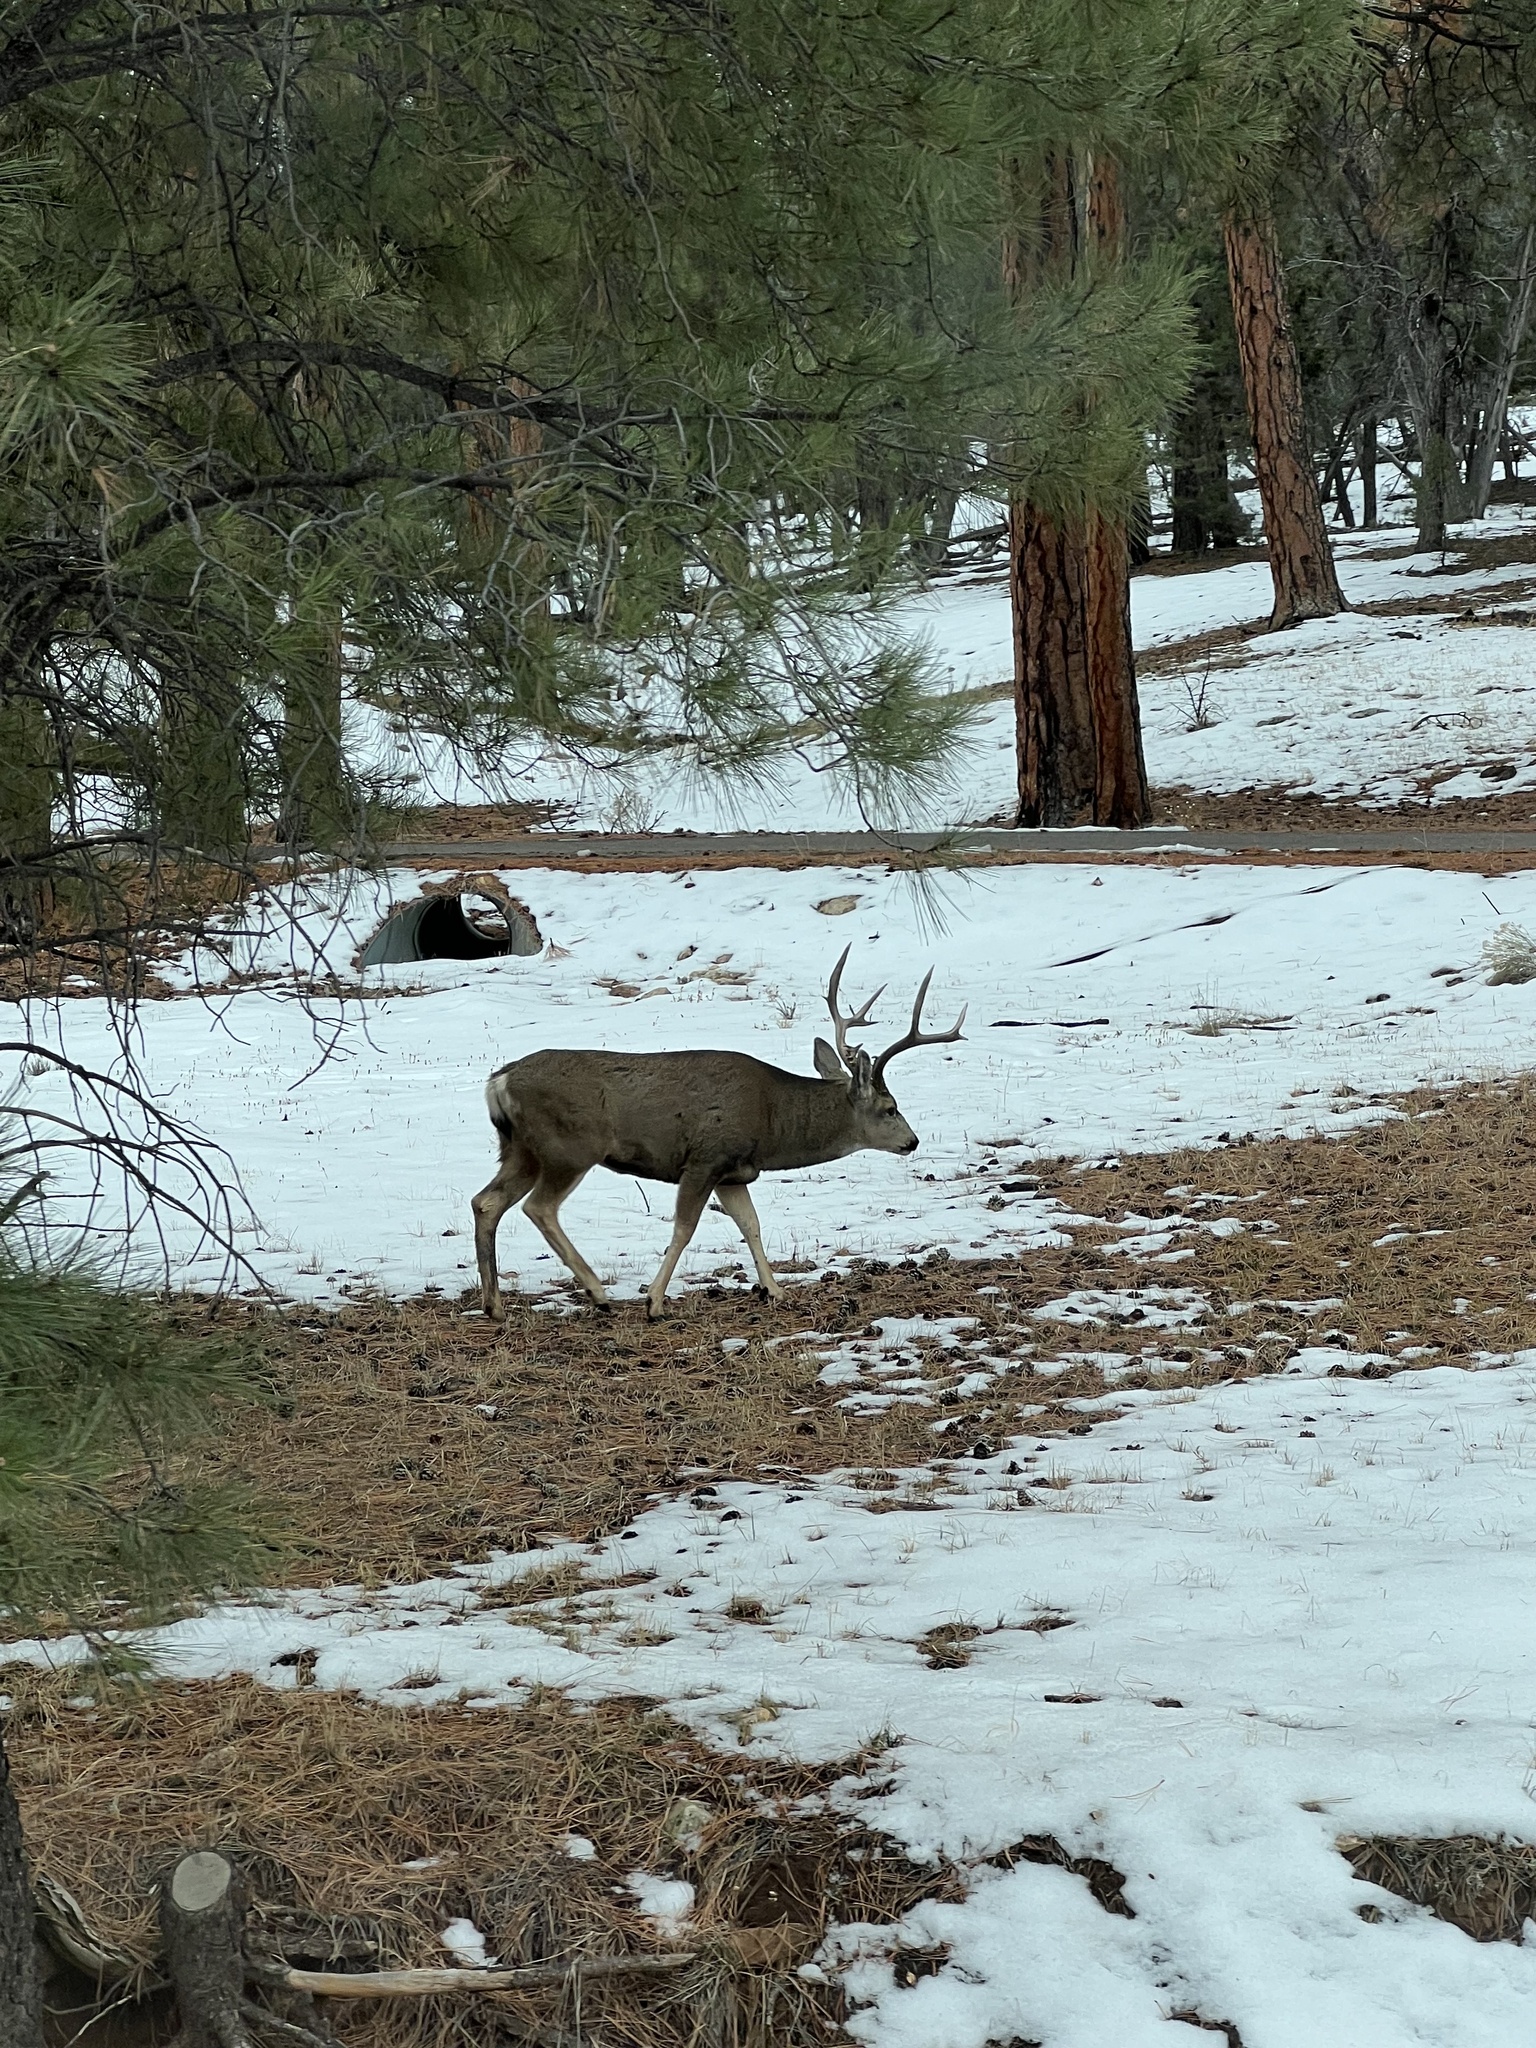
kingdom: Animalia
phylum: Chordata
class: Mammalia
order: Artiodactyla
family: Cervidae
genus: Odocoileus
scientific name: Odocoileus hemionus
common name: Mule deer
